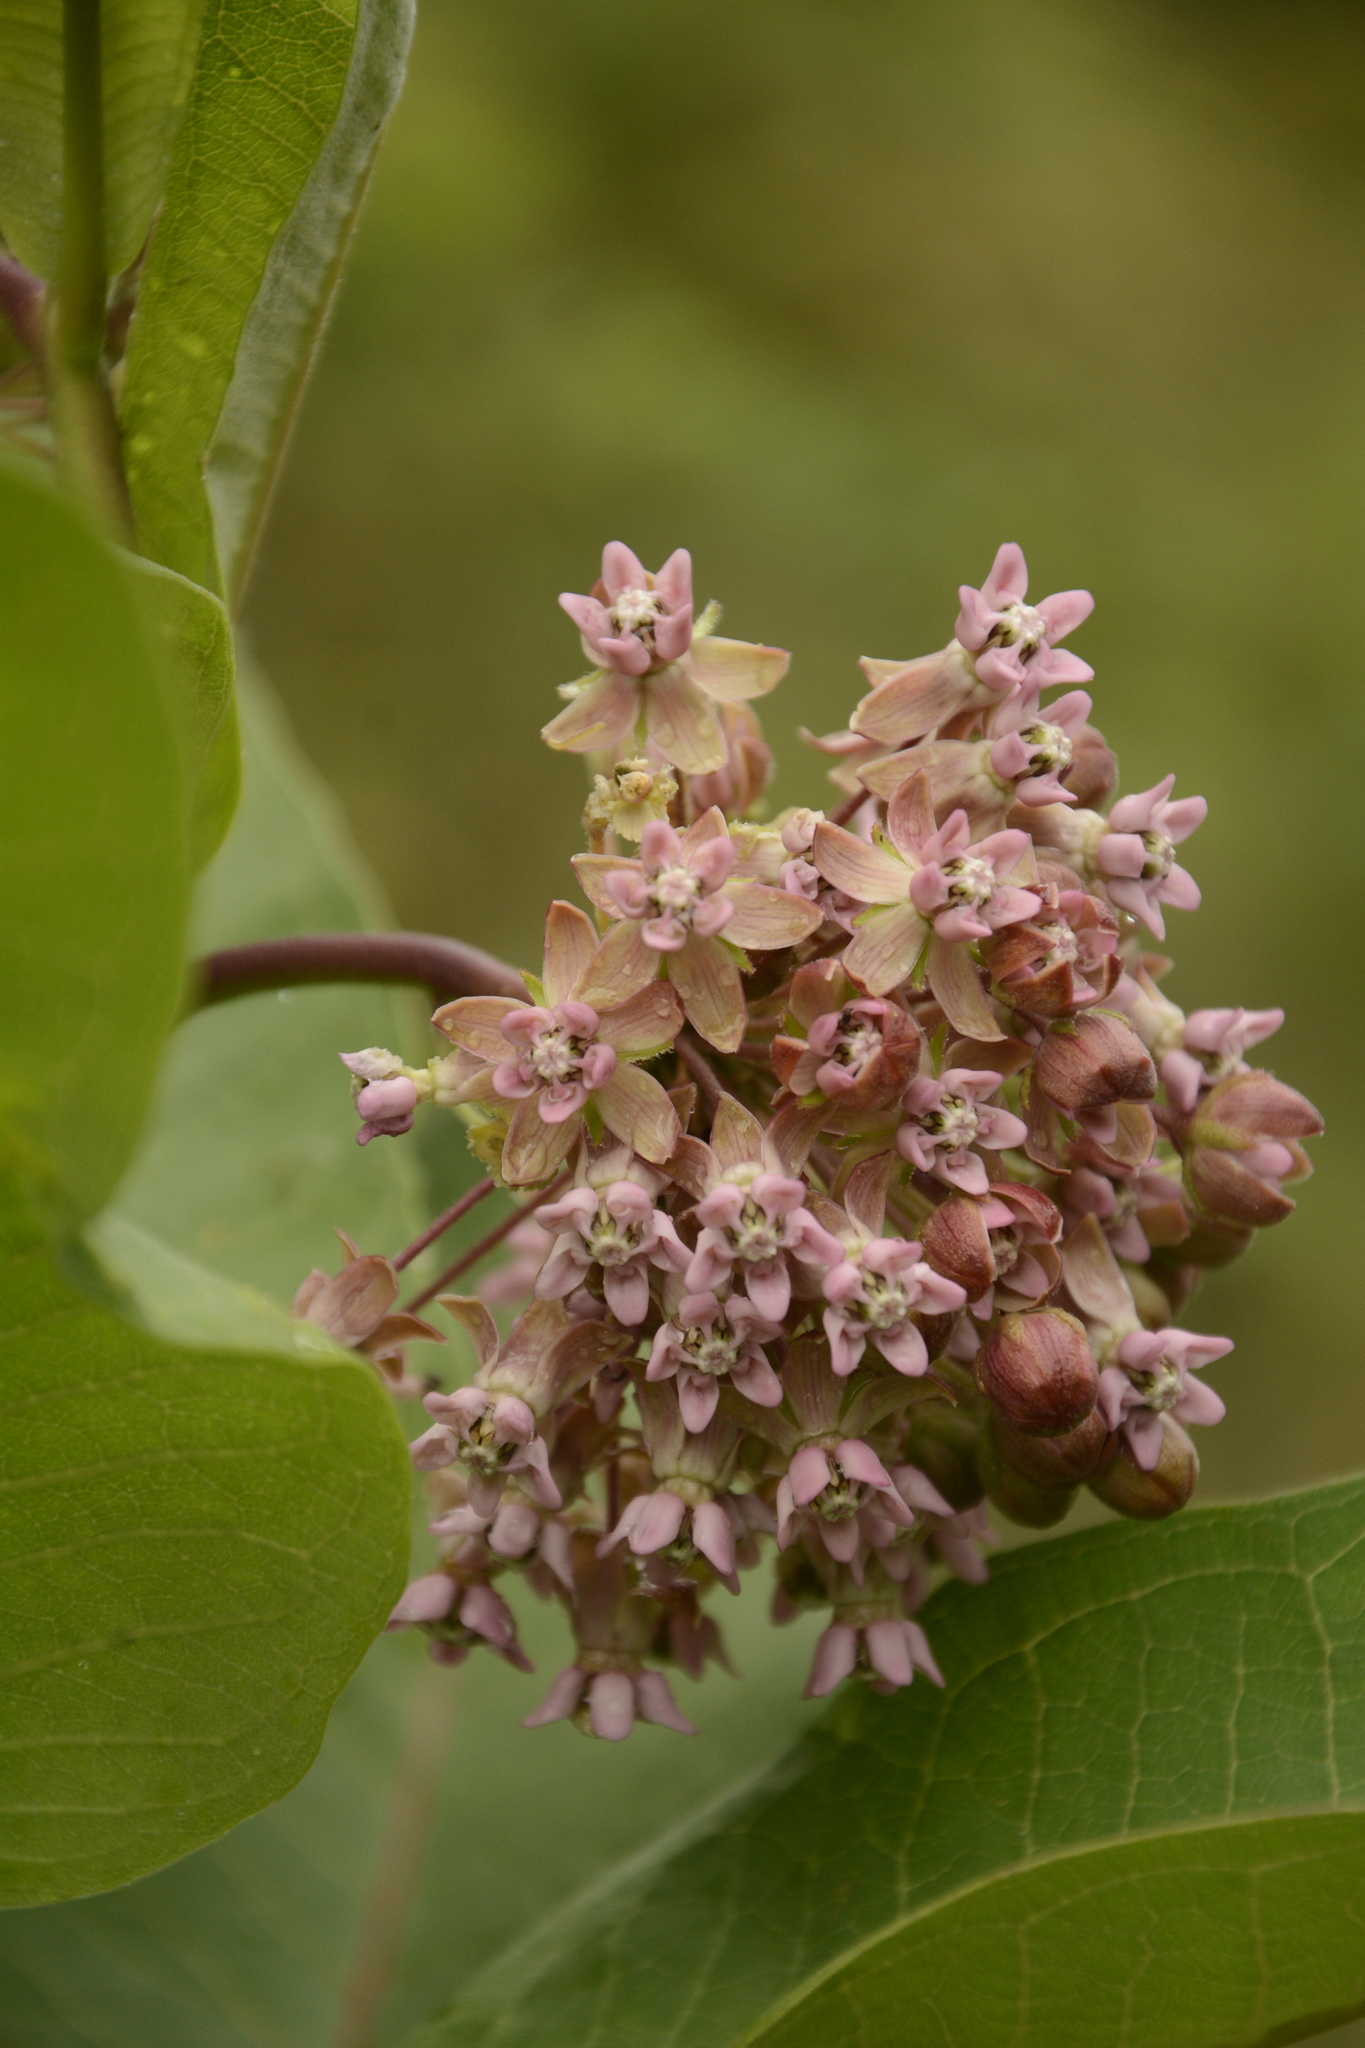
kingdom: Plantae
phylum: Tracheophyta
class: Magnoliopsida
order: Gentianales
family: Apocynaceae
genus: Asclepias
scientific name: Asclepias syriaca
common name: Common milkweed
